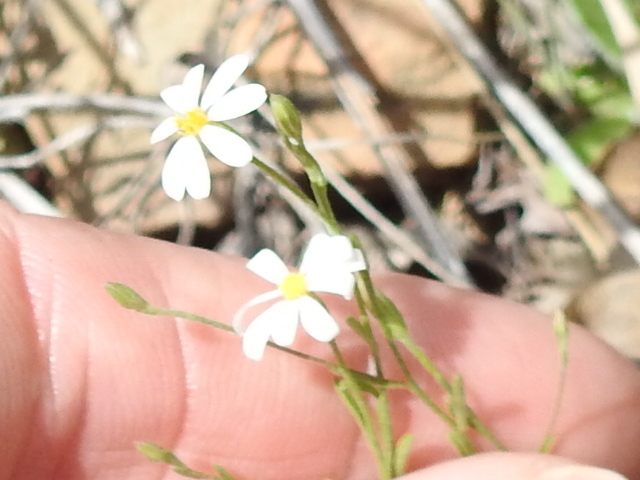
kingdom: Plantae
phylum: Tracheophyta
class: Magnoliopsida
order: Asterales
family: Asteraceae
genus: Chaetopappa
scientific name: Chaetopappa asteroides
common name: Tiny lazy daisy
